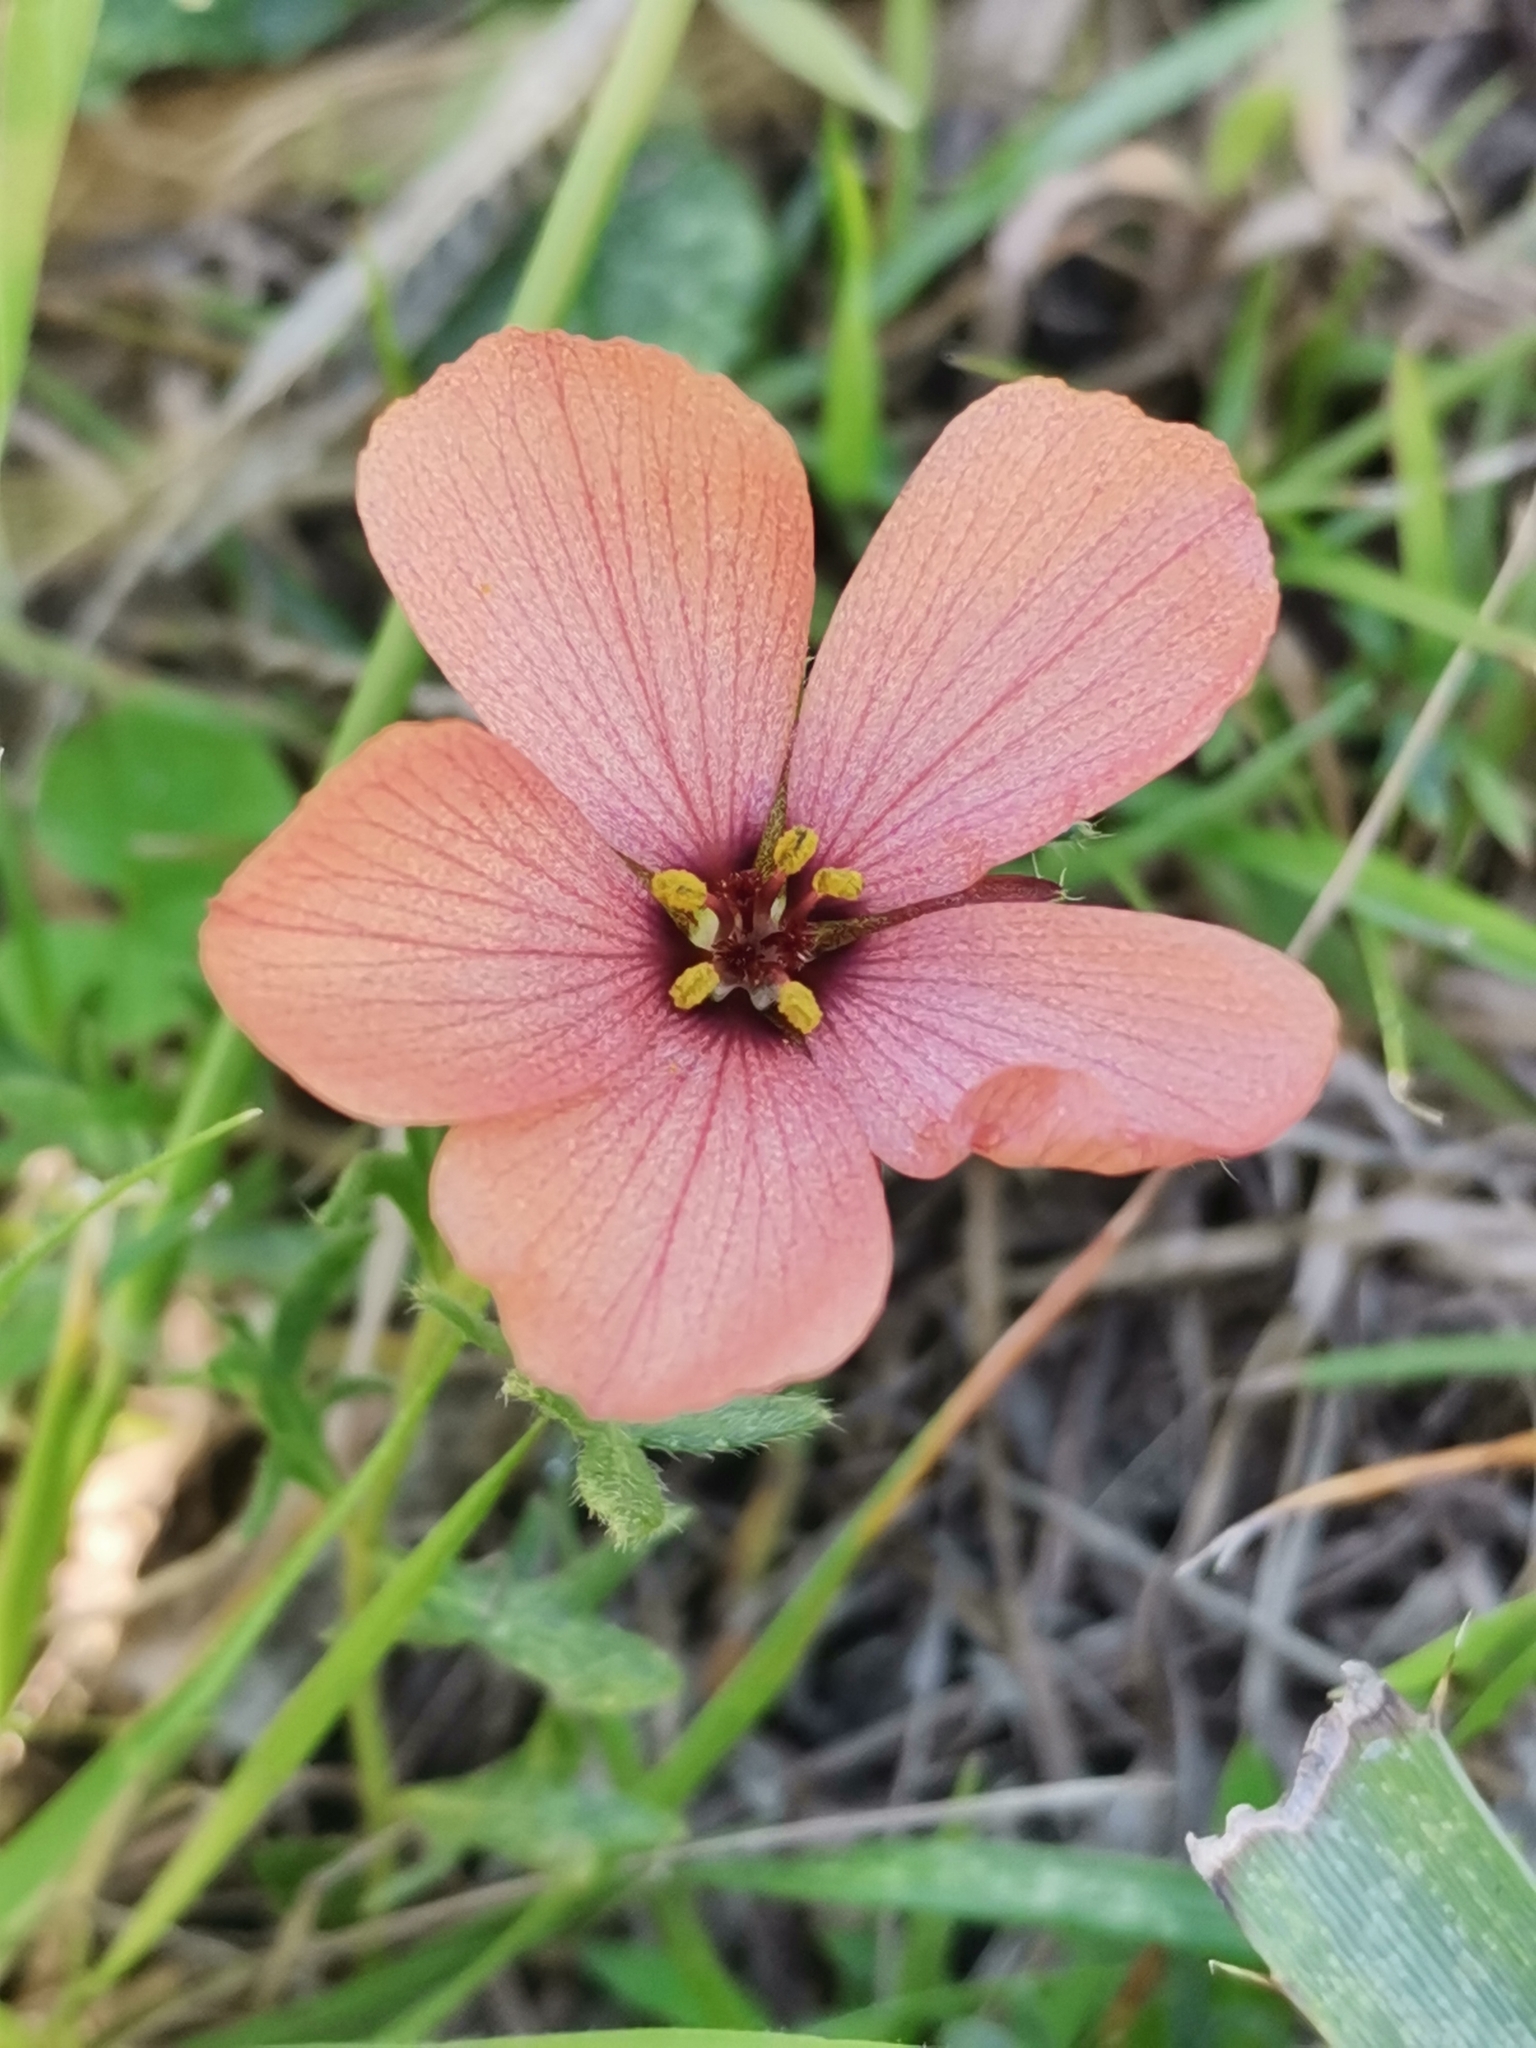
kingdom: Plantae
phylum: Tracheophyta
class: Magnoliopsida
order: Malpighiales
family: Turneraceae
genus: Turnera
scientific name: Turnera sidoides
